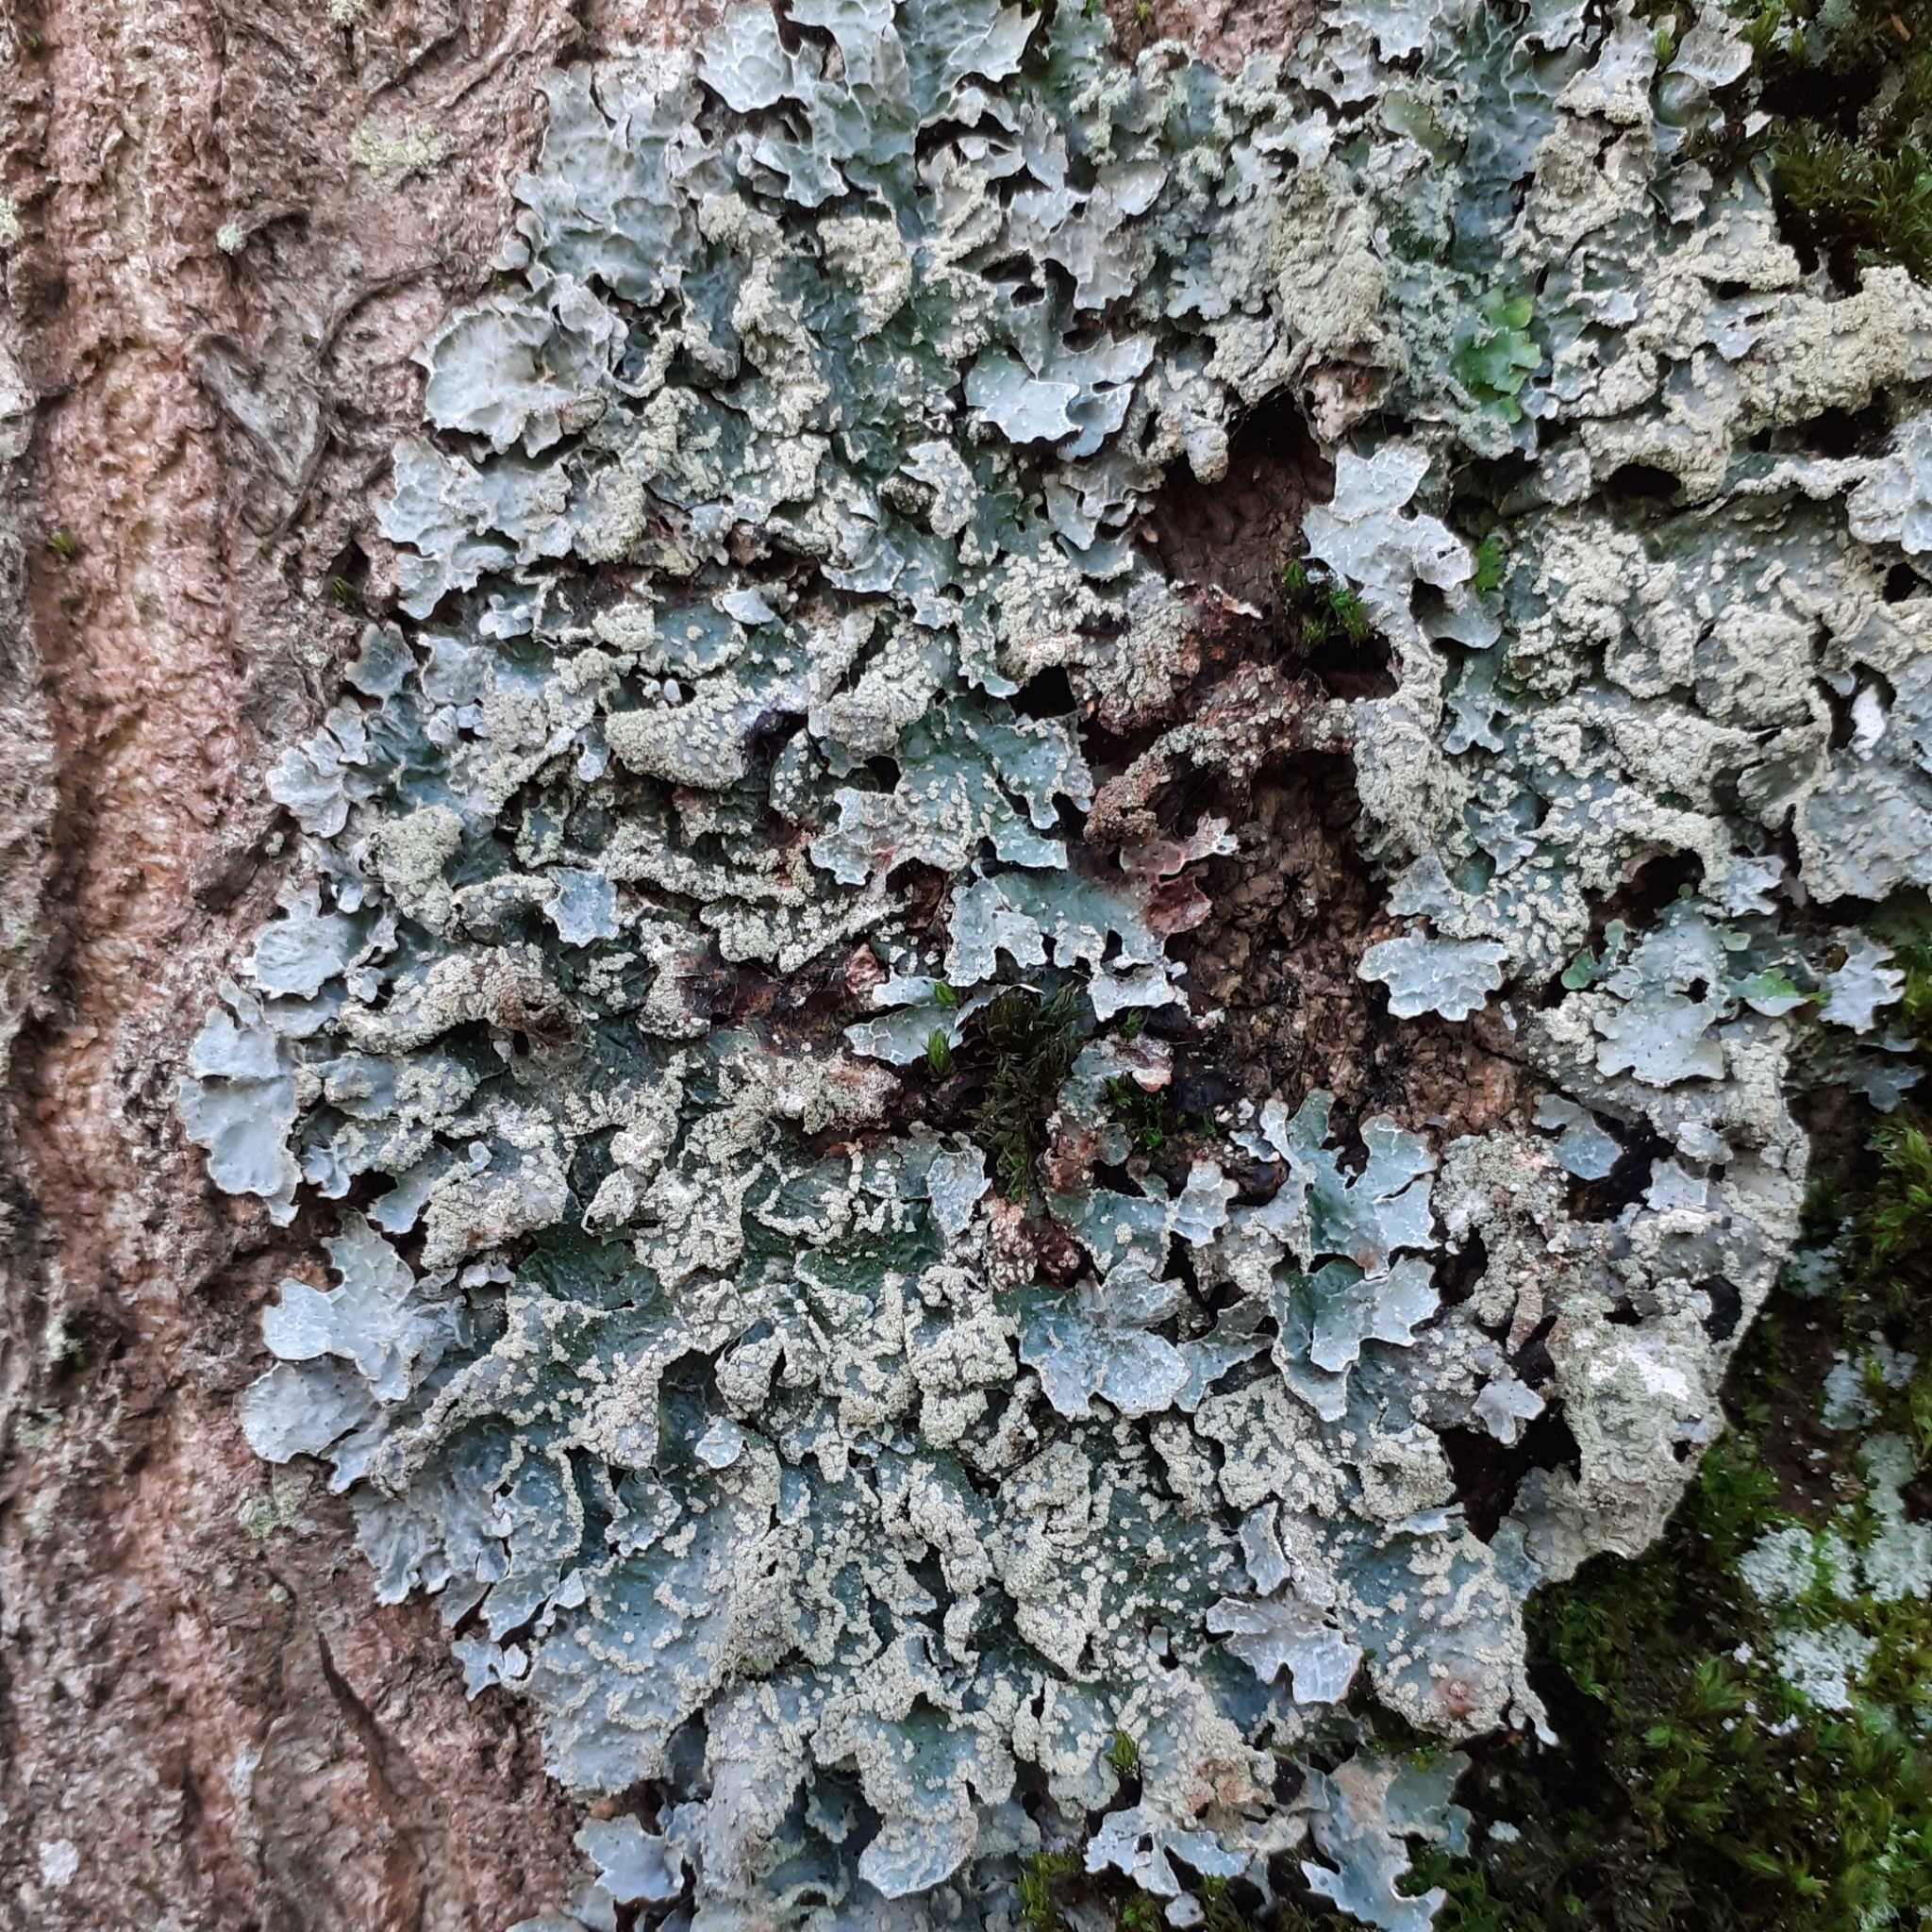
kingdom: Fungi
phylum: Ascomycota
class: Lecanoromycetes
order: Lecanorales
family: Parmeliaceae
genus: Parmelia
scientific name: Parmelia sulcata
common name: Netted shield lichen
